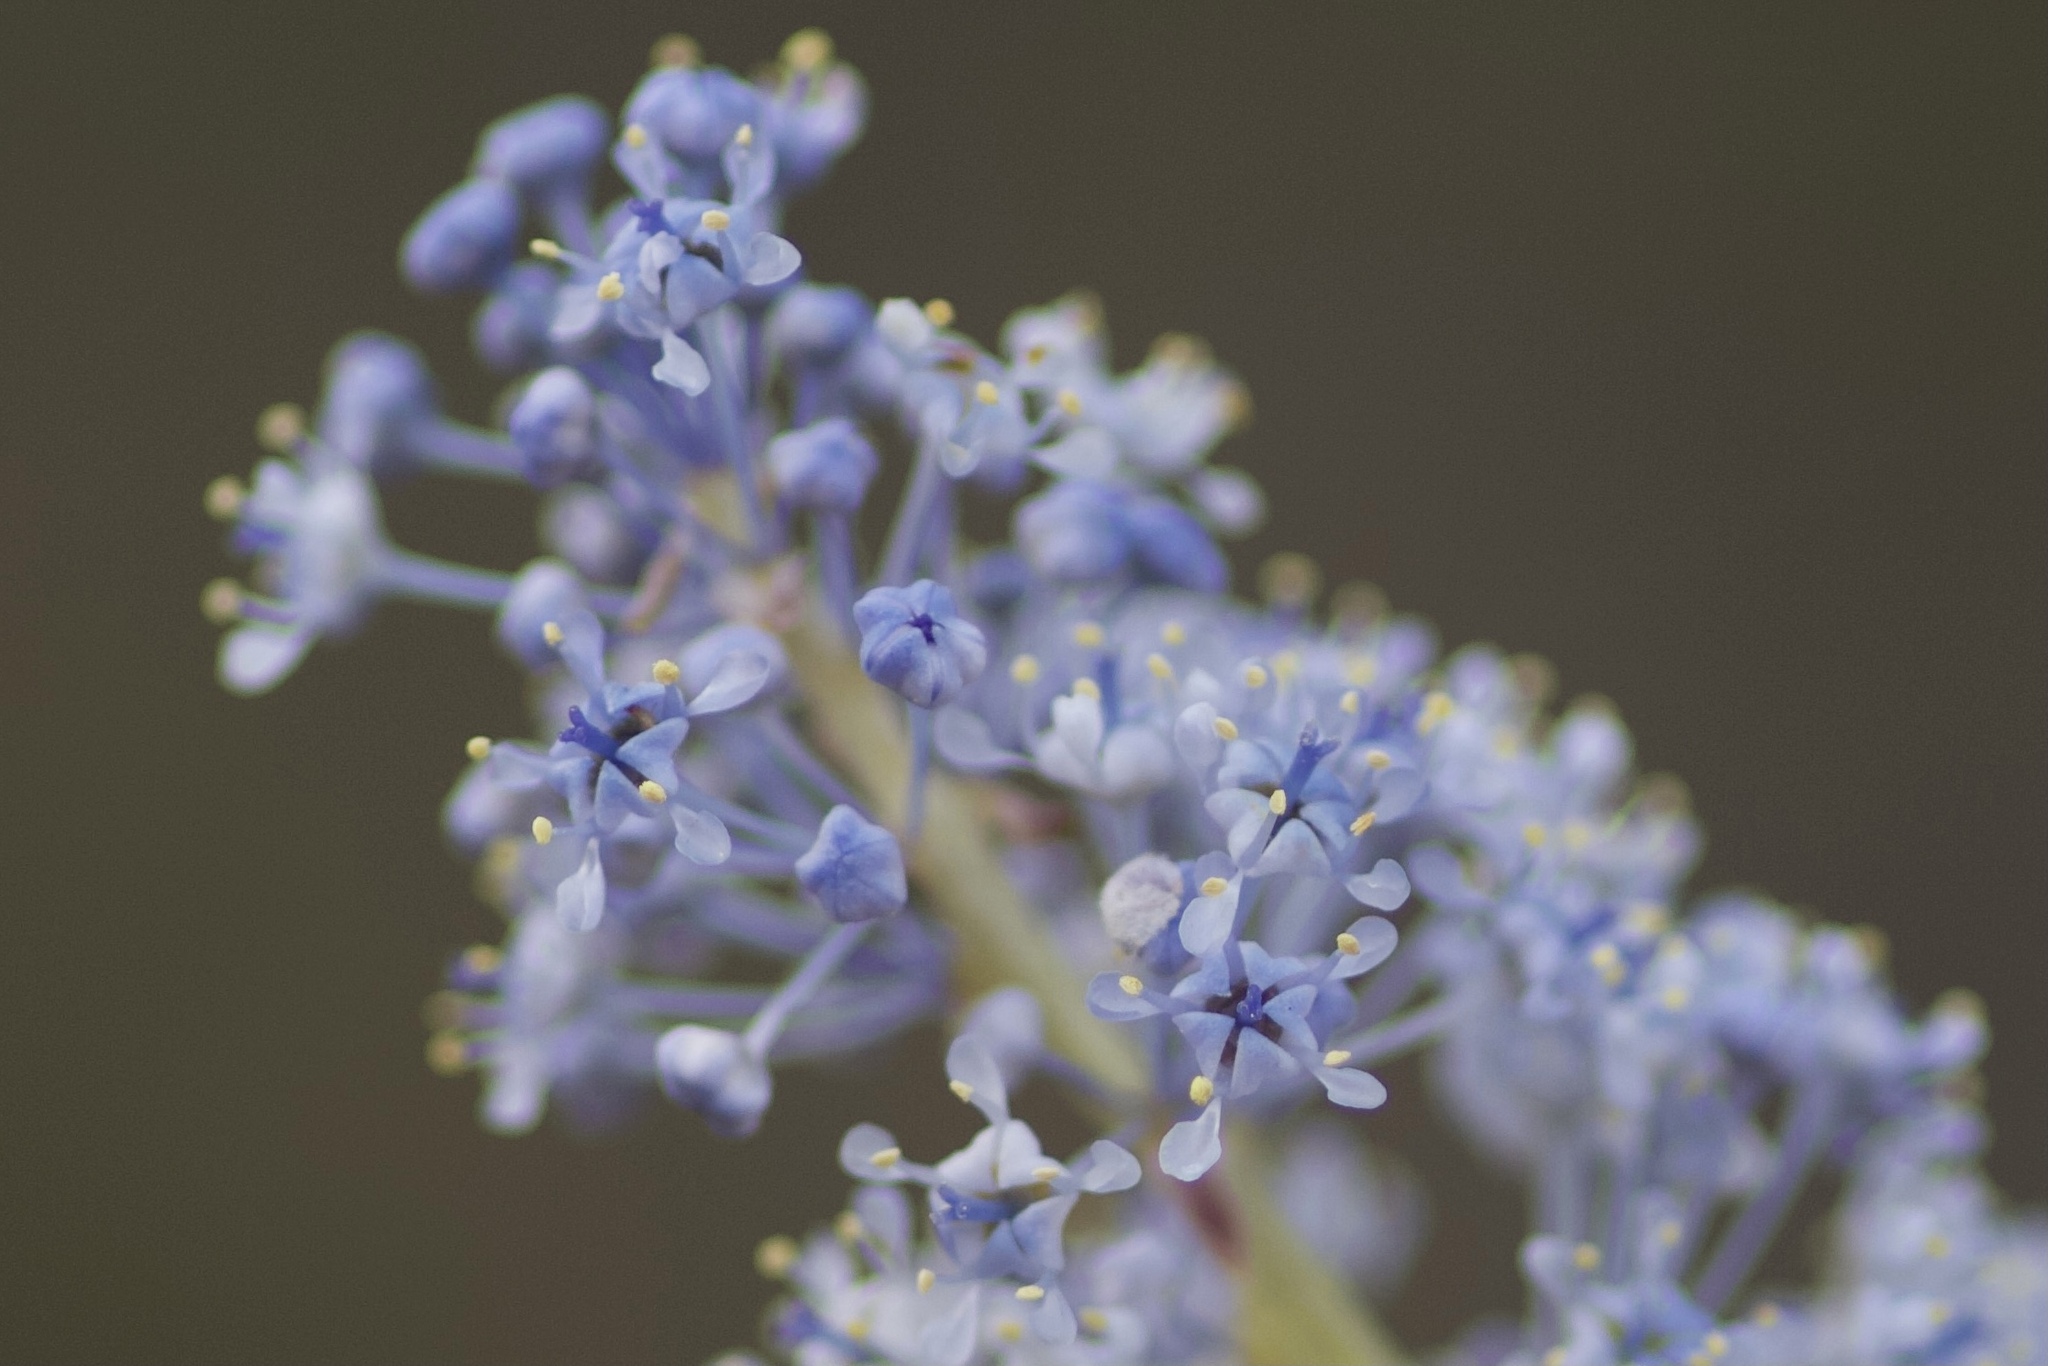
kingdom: Plantae
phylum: Tracheophyta
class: Magnoliopsida
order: Rosales
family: Rhamnaceae
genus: Ceanothus
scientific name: Ceanothus leucodermis
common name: Chaparral whitethorn
